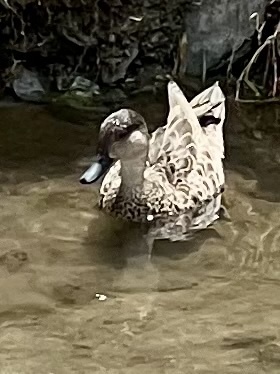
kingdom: Animalia
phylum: Chordata
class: Aves
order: Anseriformes
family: Anatidae
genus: Anas
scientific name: Anas gracilis
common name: Grey teal
